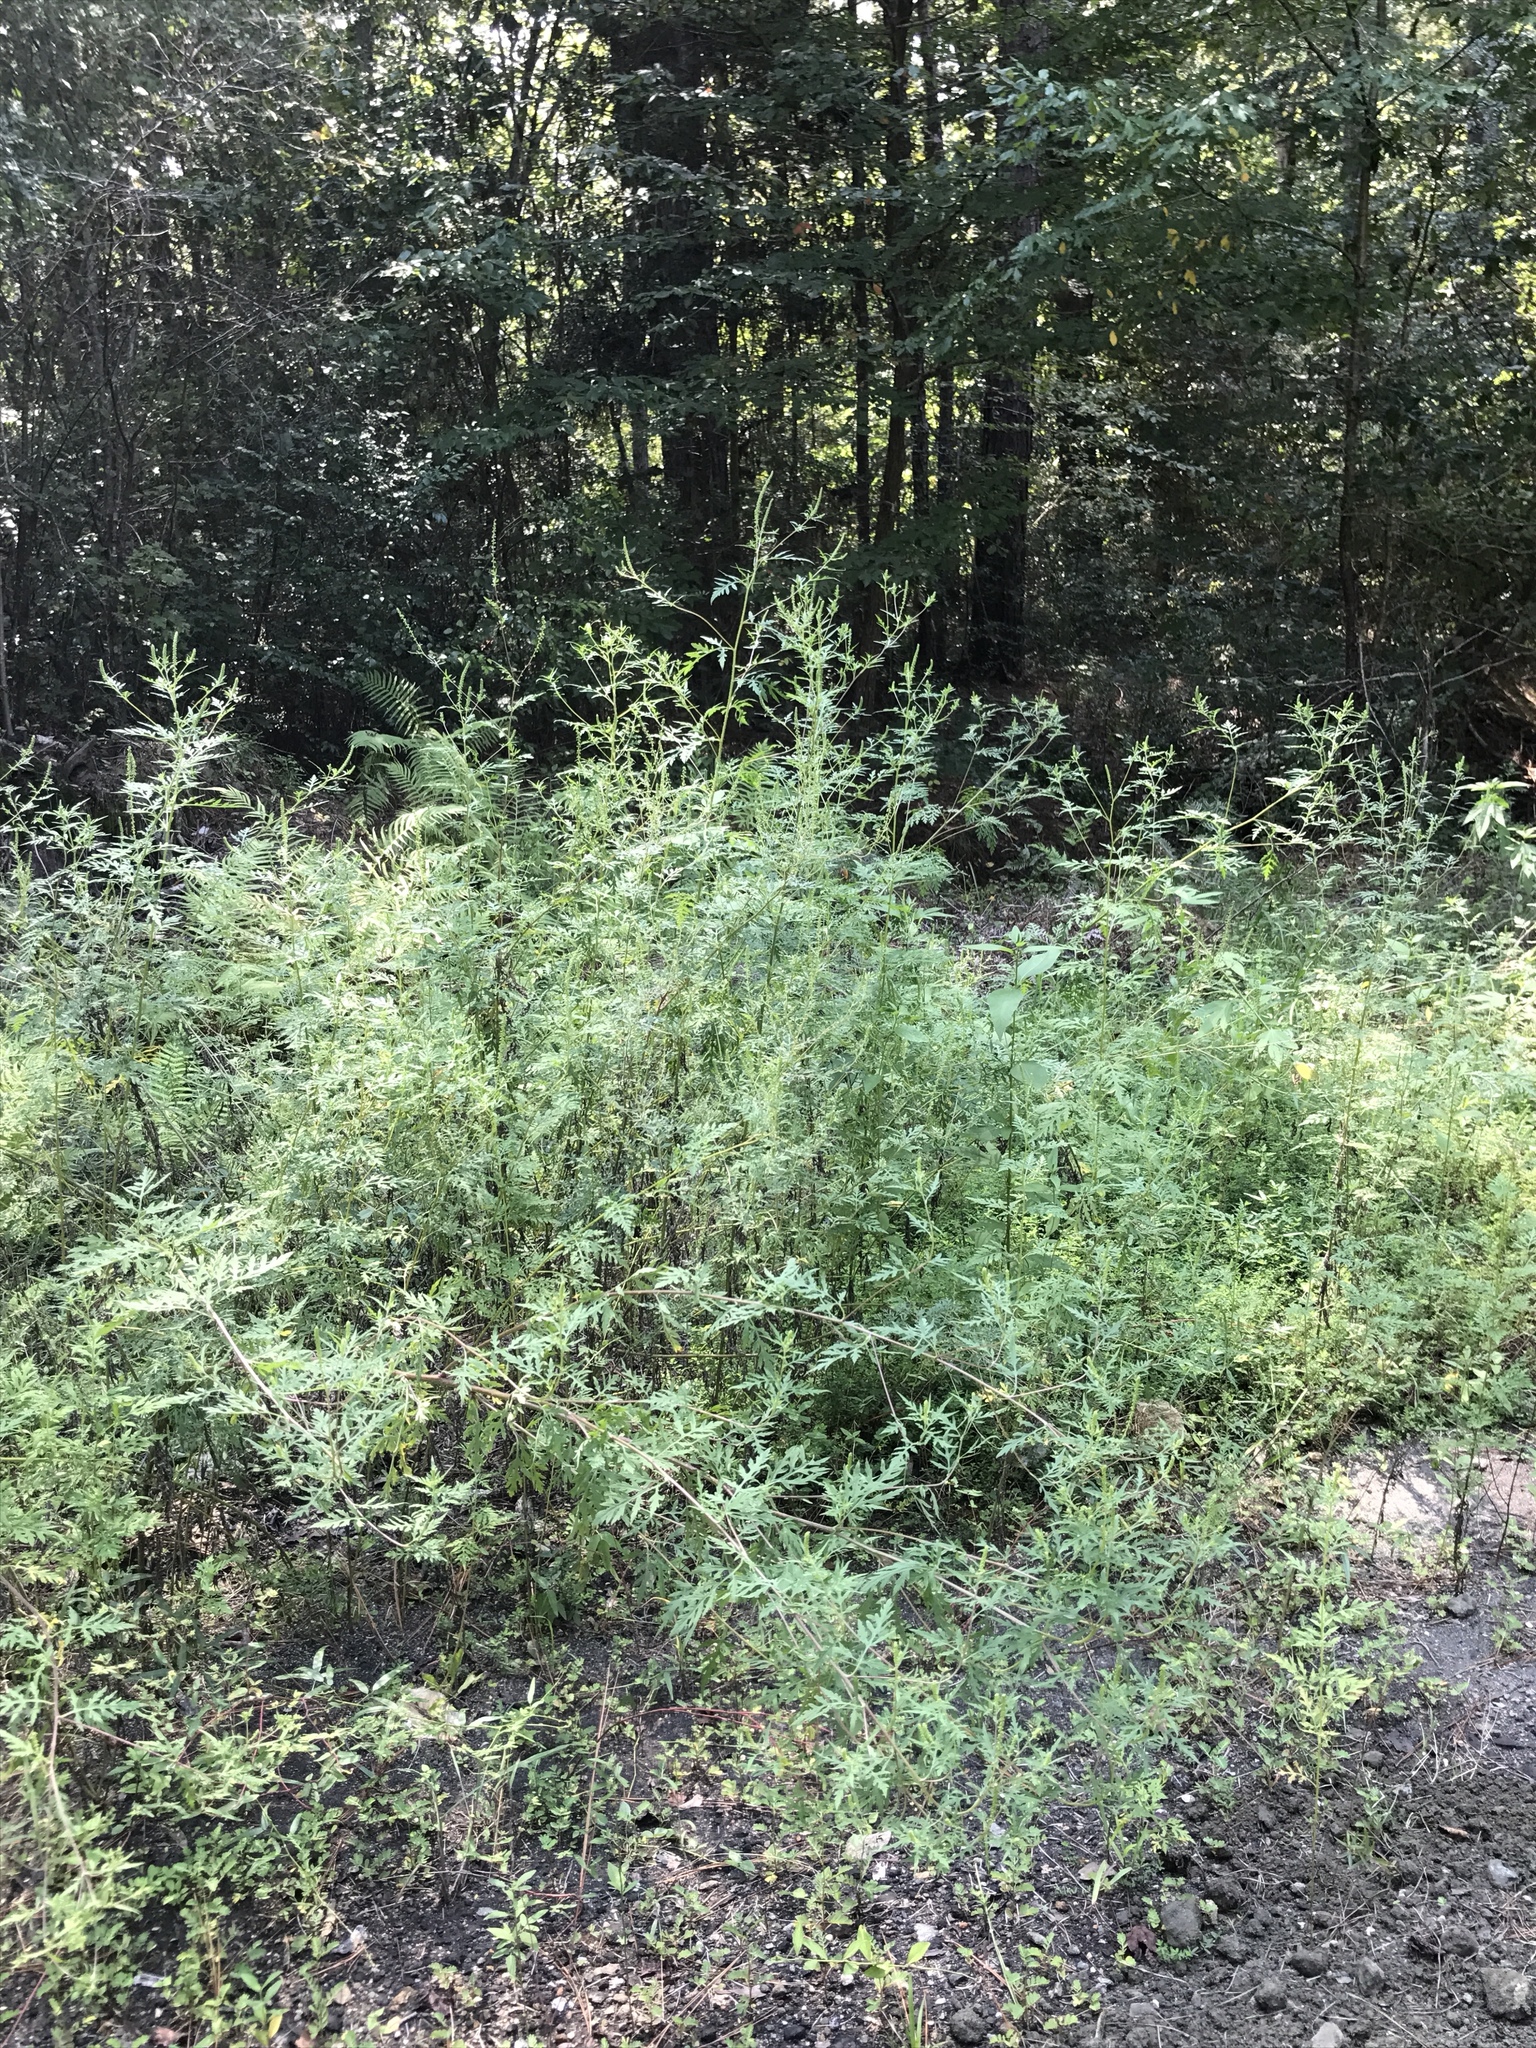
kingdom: Plantae
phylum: Tracheophyta
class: Magnoliopsida
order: Asterales
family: Asteraceae
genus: Ambrosia
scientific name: Ambrosia artemisiifolia
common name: Annual ragweed
